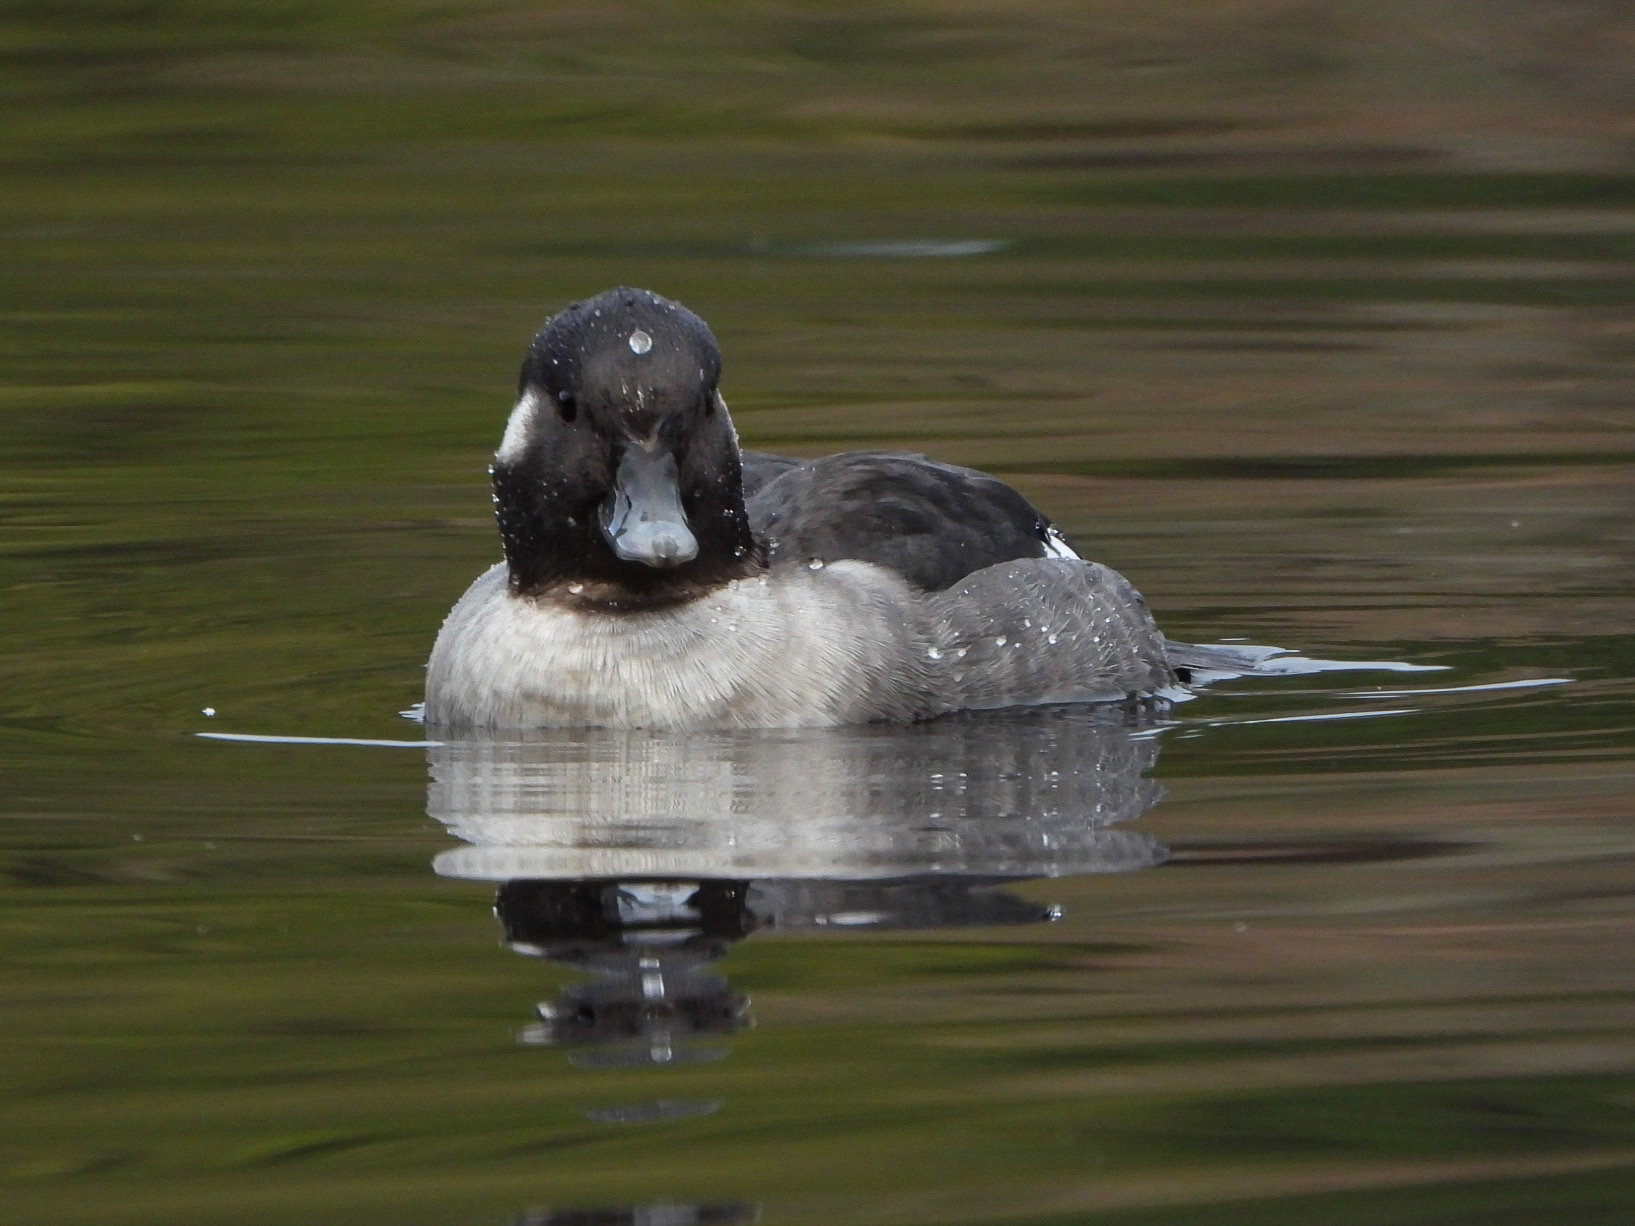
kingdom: Animalia
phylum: Chordata
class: Aves
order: Anseriformes
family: Anatidae
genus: Bucephala
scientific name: Bucephala albeola
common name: Bufflehead
